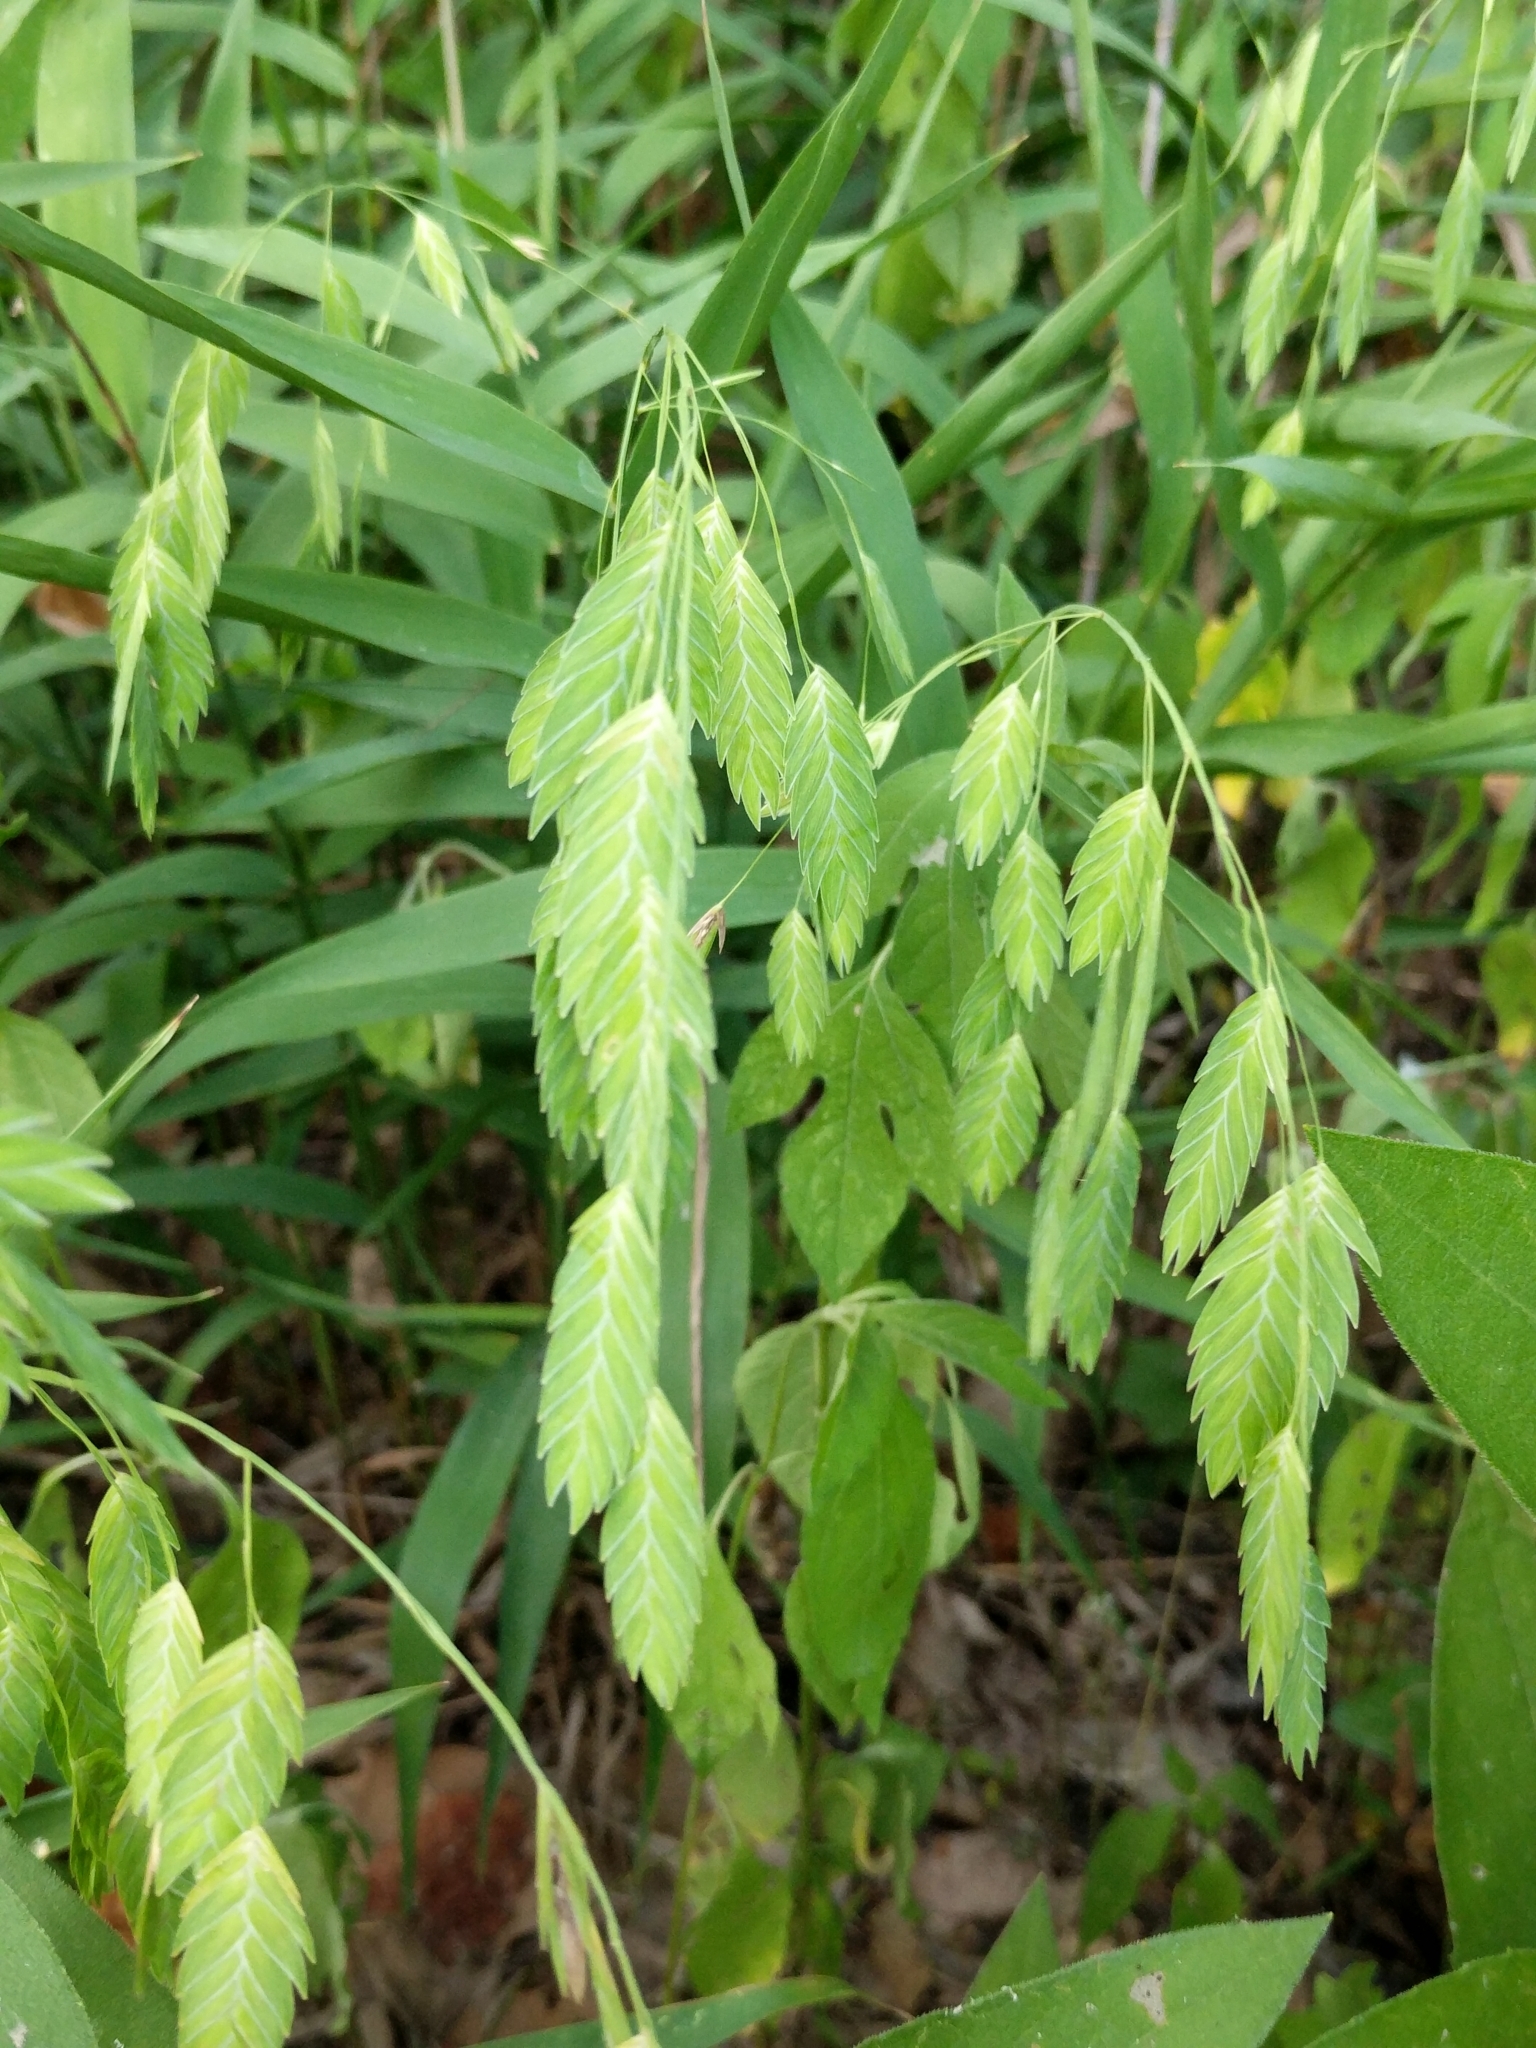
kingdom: Plantae
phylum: Tracheophyta
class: Liliopsida
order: Poales
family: Poaceae
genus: Chasmanthium
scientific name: Chasmanthium latifolium
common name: Broad-leaved chasmanthium
